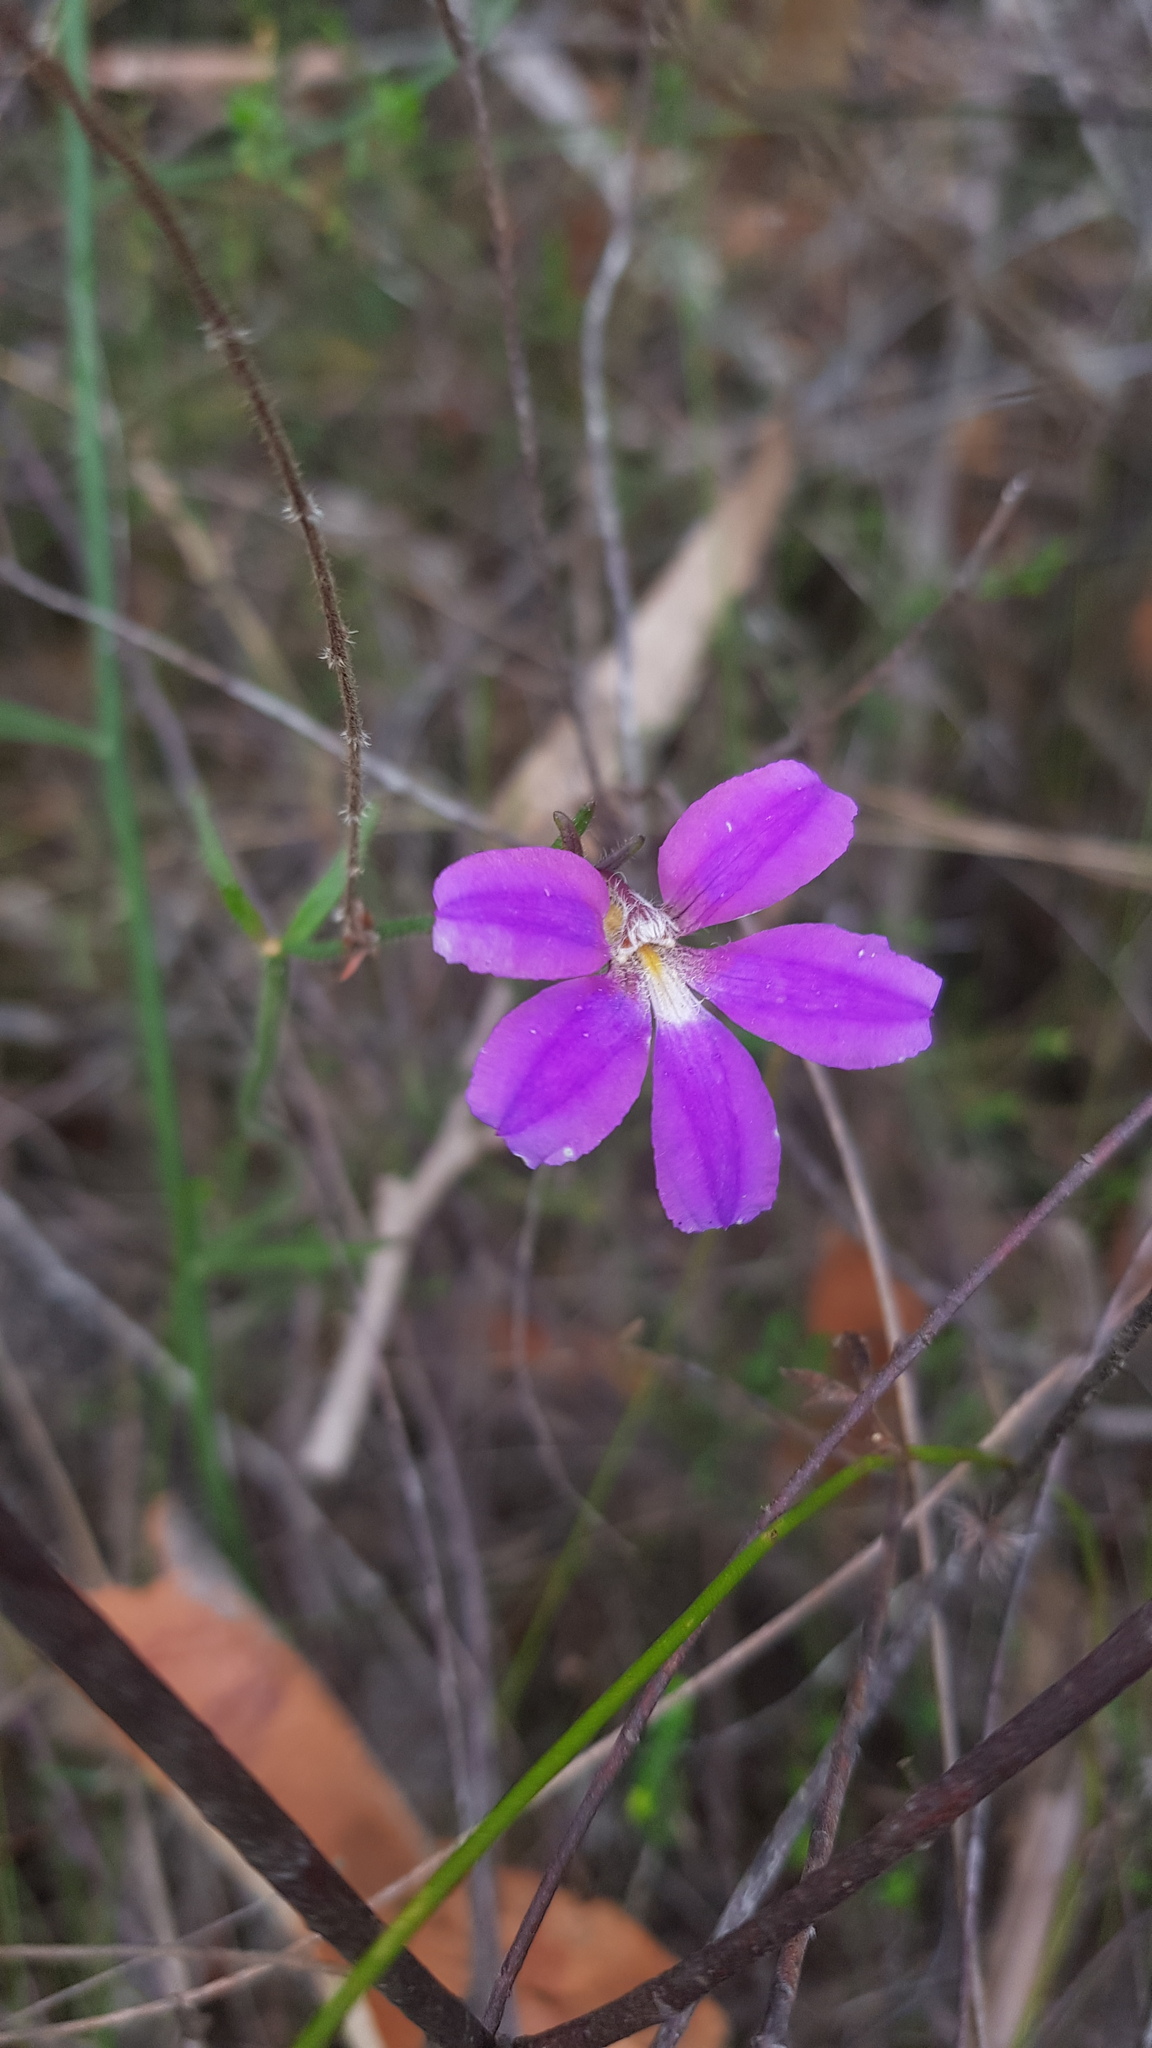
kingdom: Plantae
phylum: Tracheophyta
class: Magnoliopsida
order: Asterales
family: Goodeniaceae
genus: Scaevola
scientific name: Scaevola ramosissima
